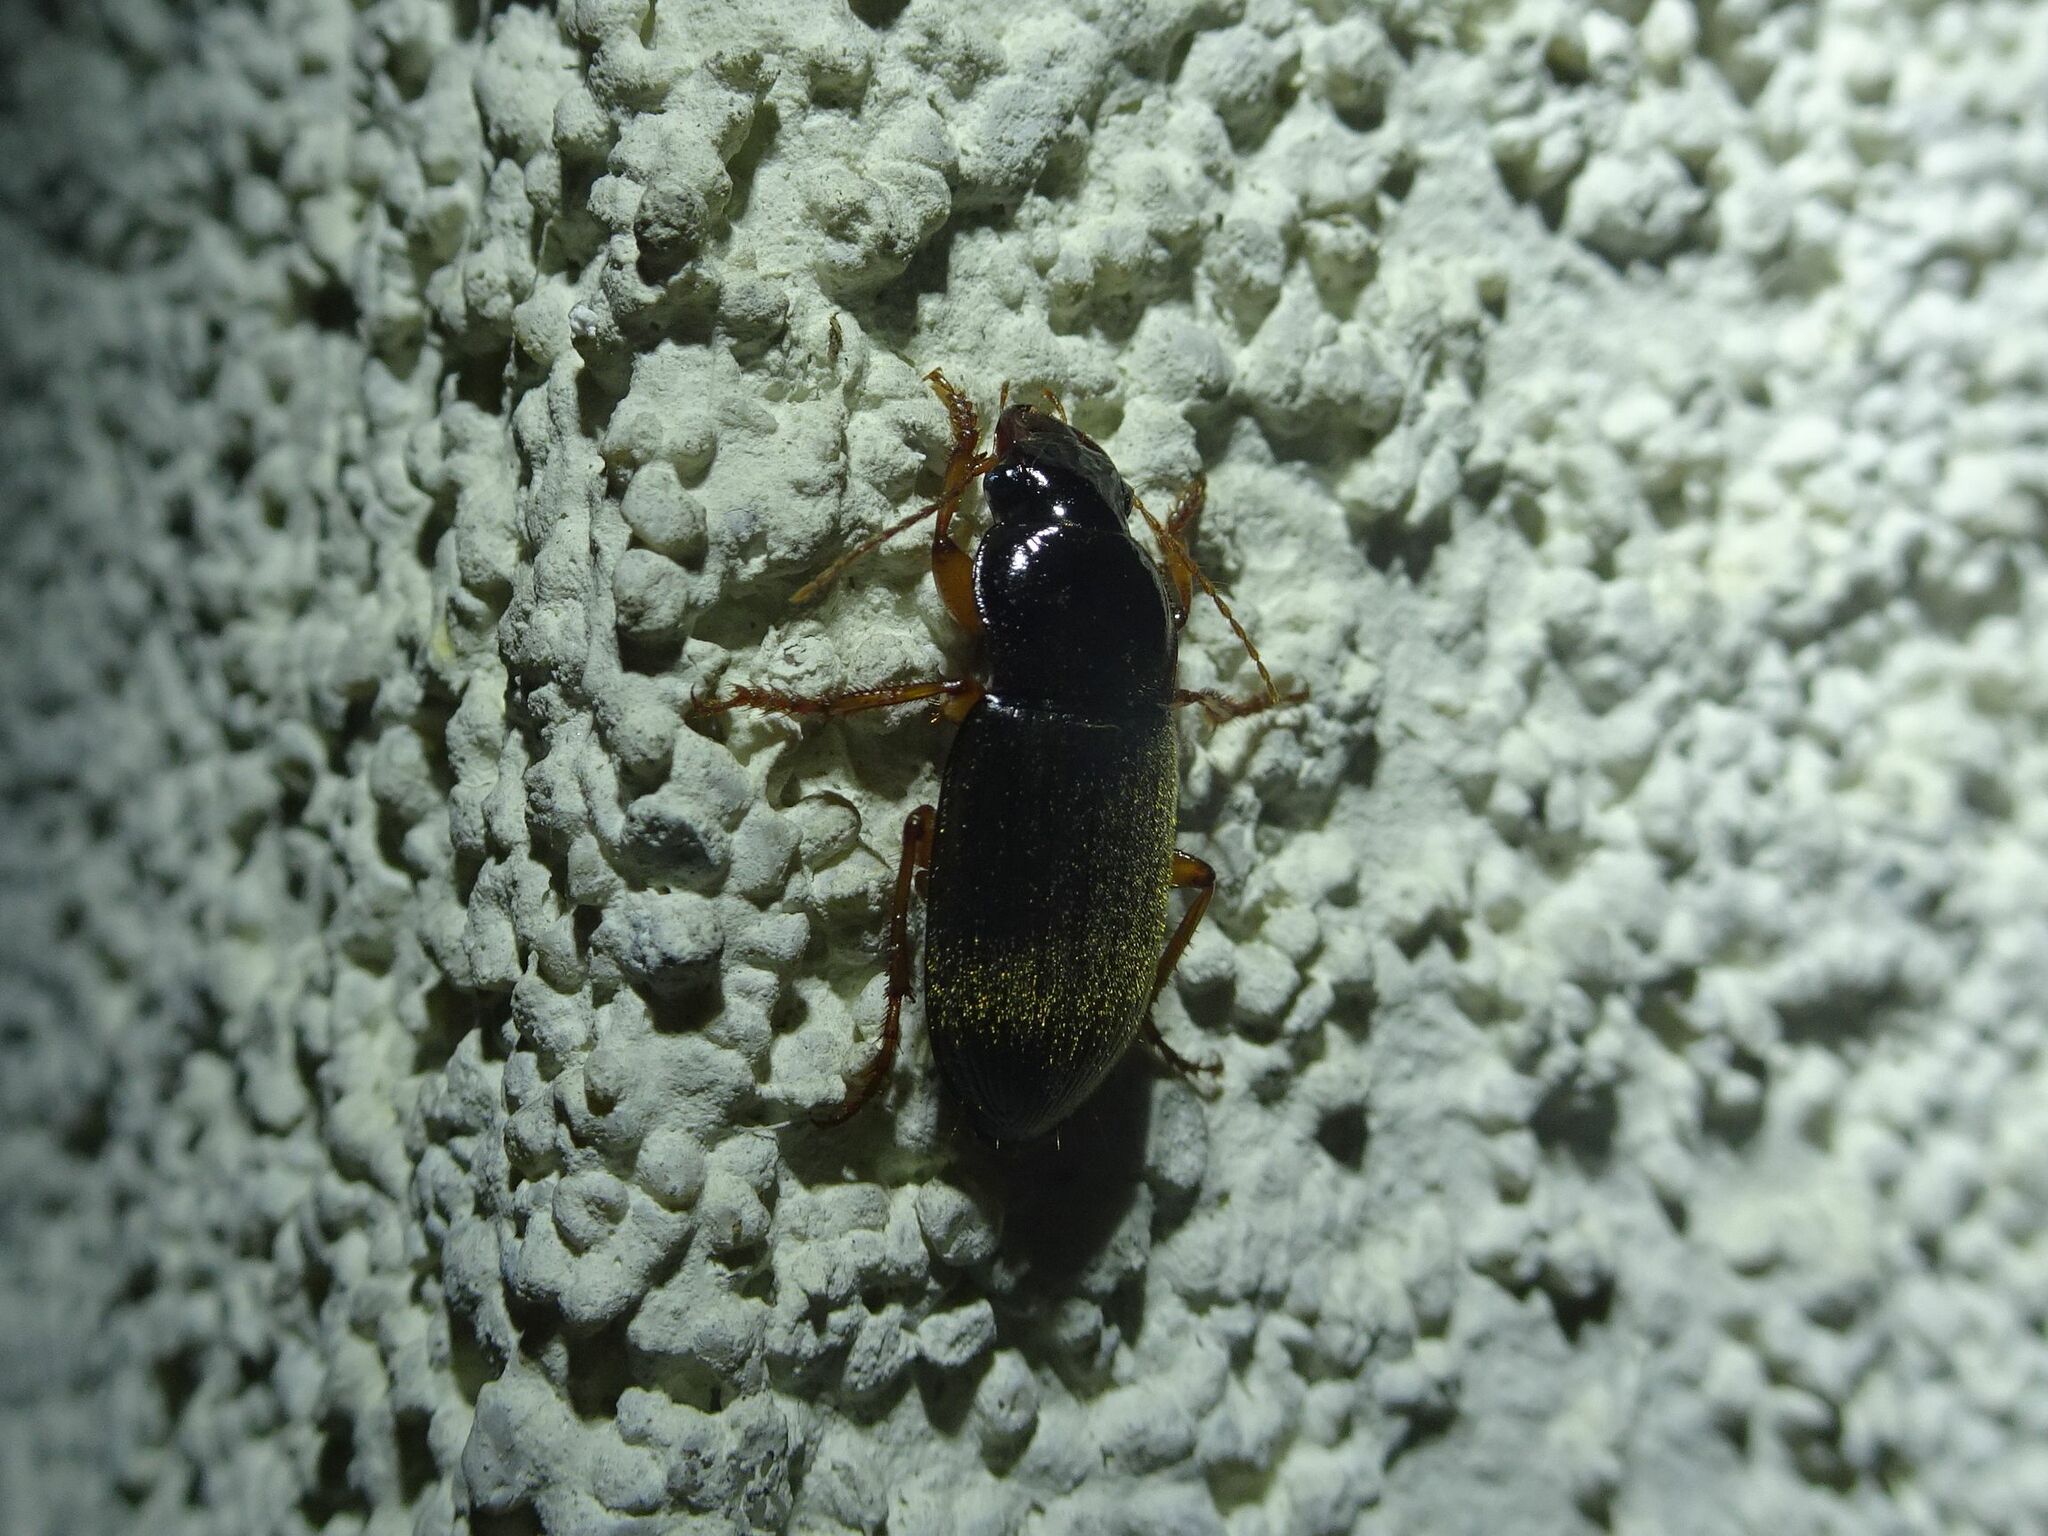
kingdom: Animalia
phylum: Arthropoda
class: Insecta
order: Coleoptera
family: Carabidae
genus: Harpalus
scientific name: Harpalus rufipes
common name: Strawberry harp ground beetle
